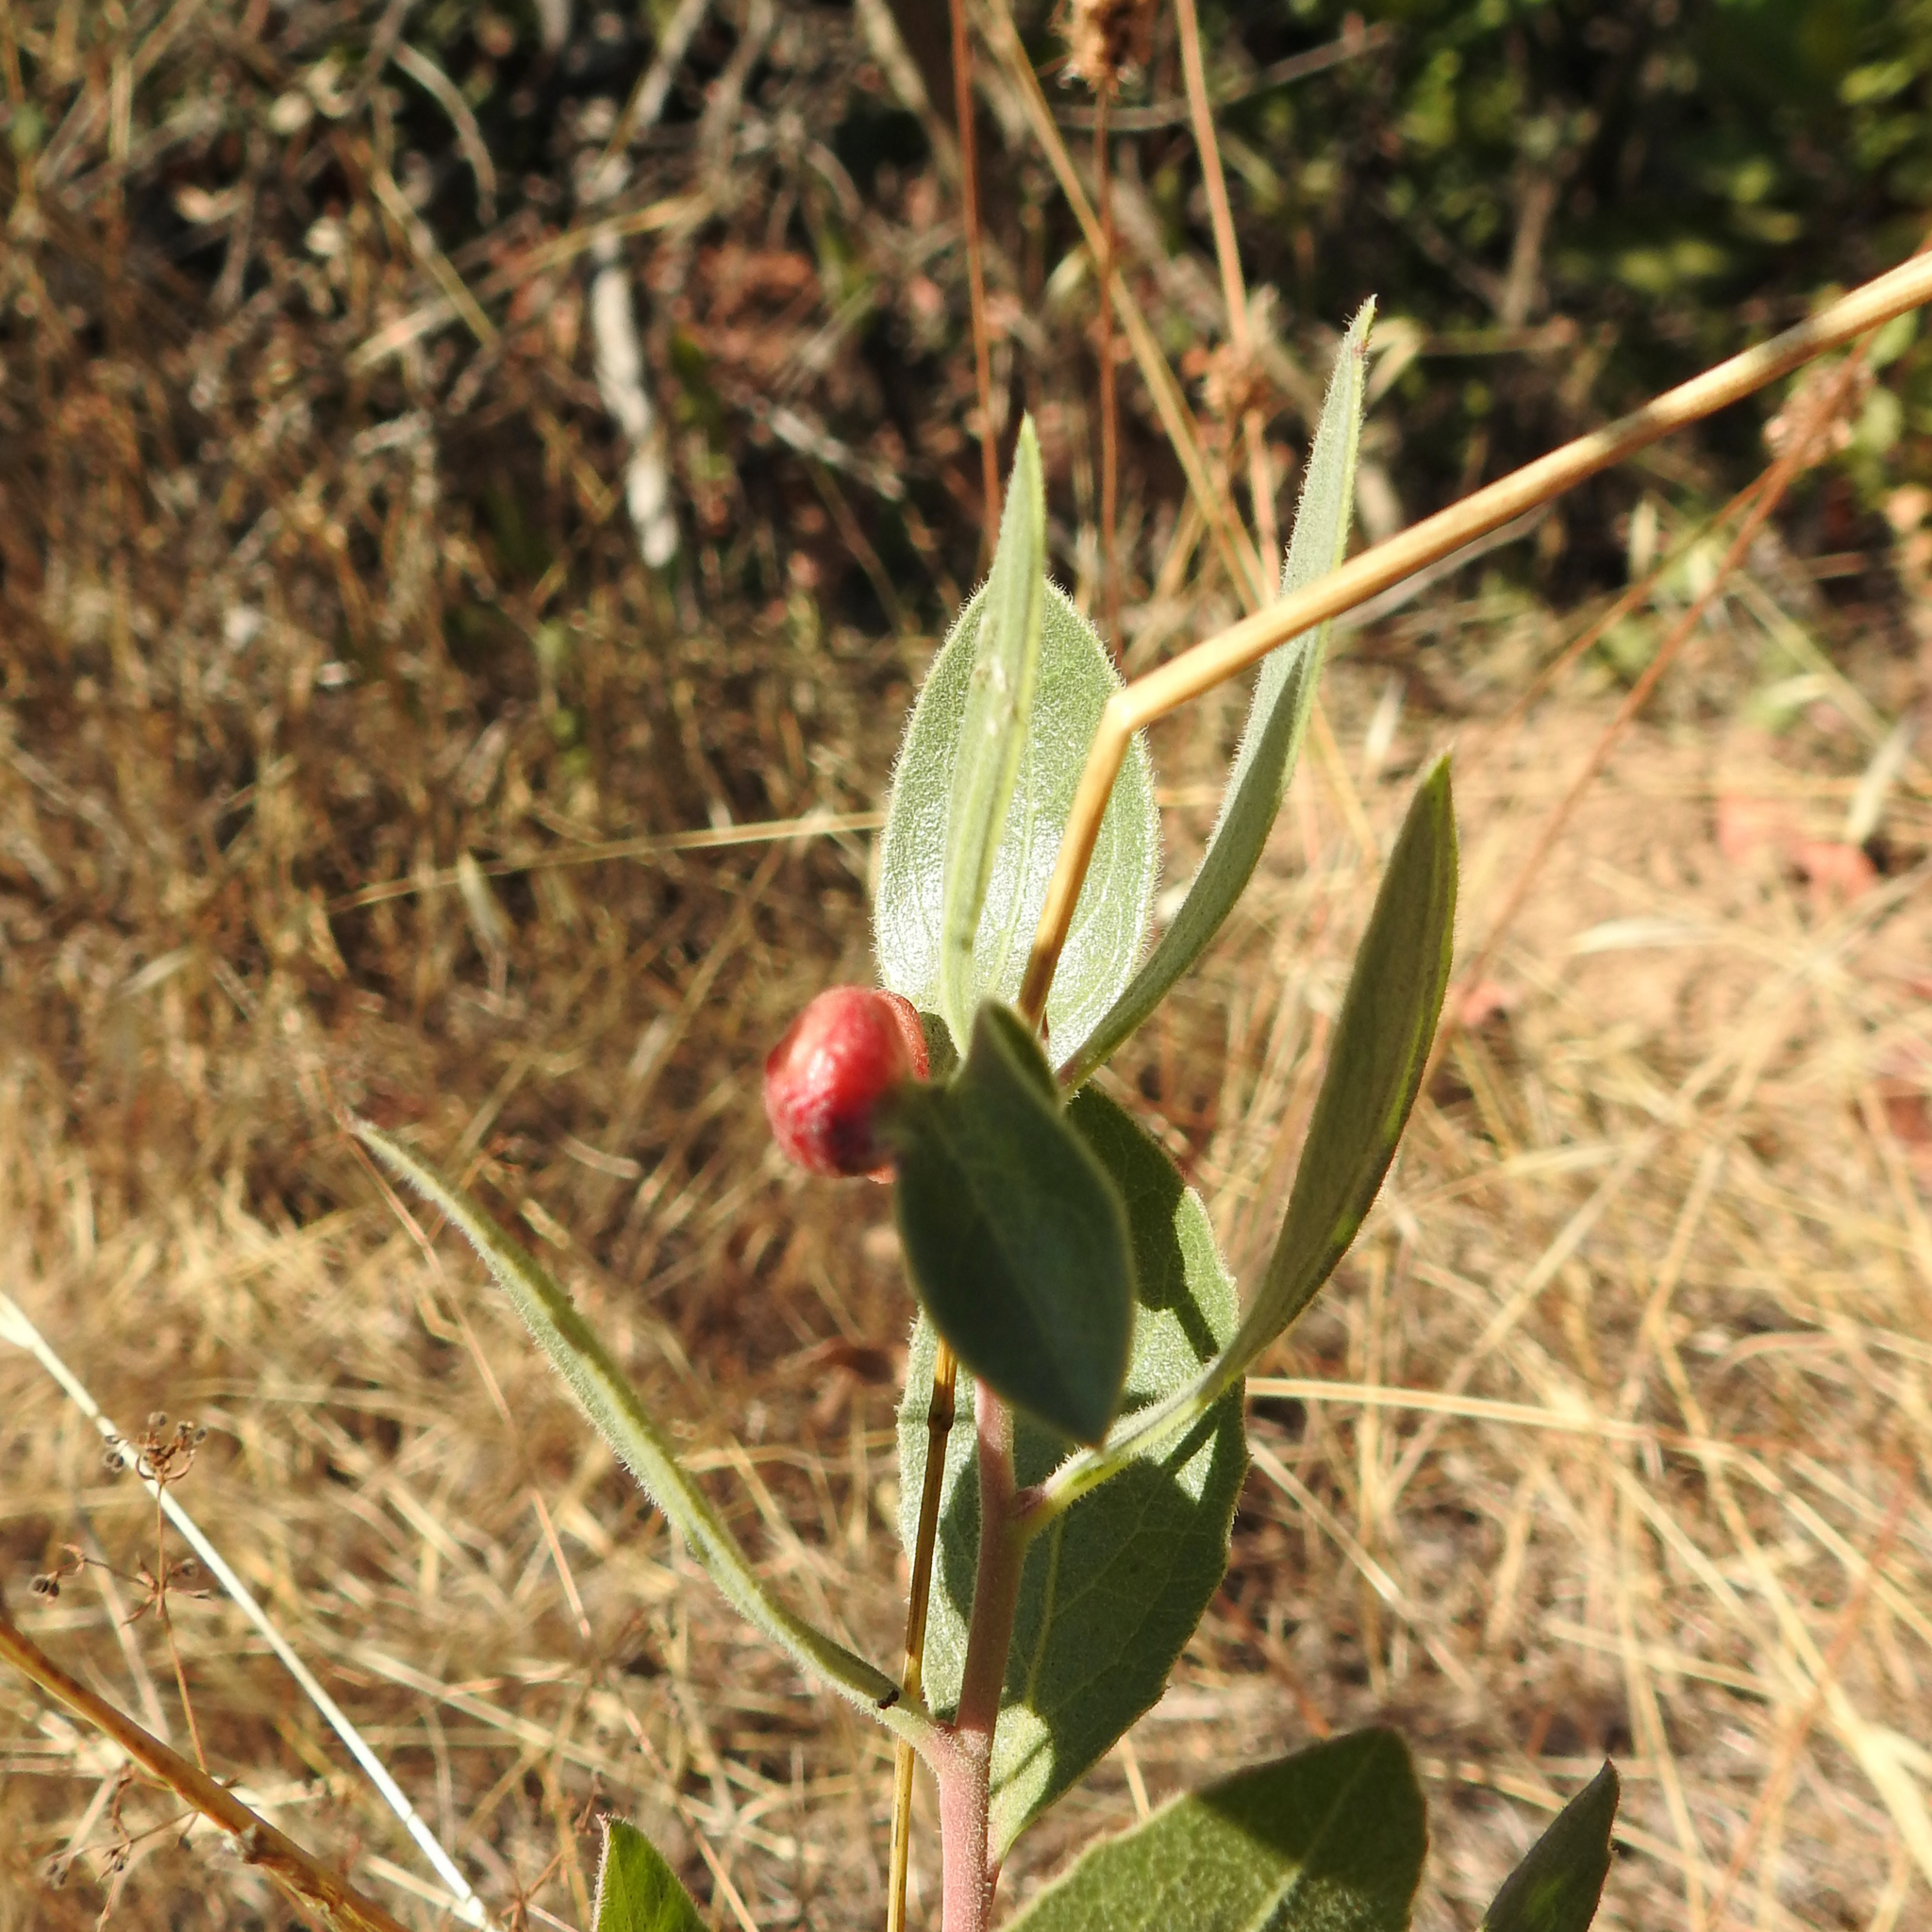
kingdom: Animalia
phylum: Arthropoda
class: Insecta
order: Hemiptera
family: Aphididae
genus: Tamalia
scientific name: Tamalia coweni
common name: Manzanita leafgall aphid
